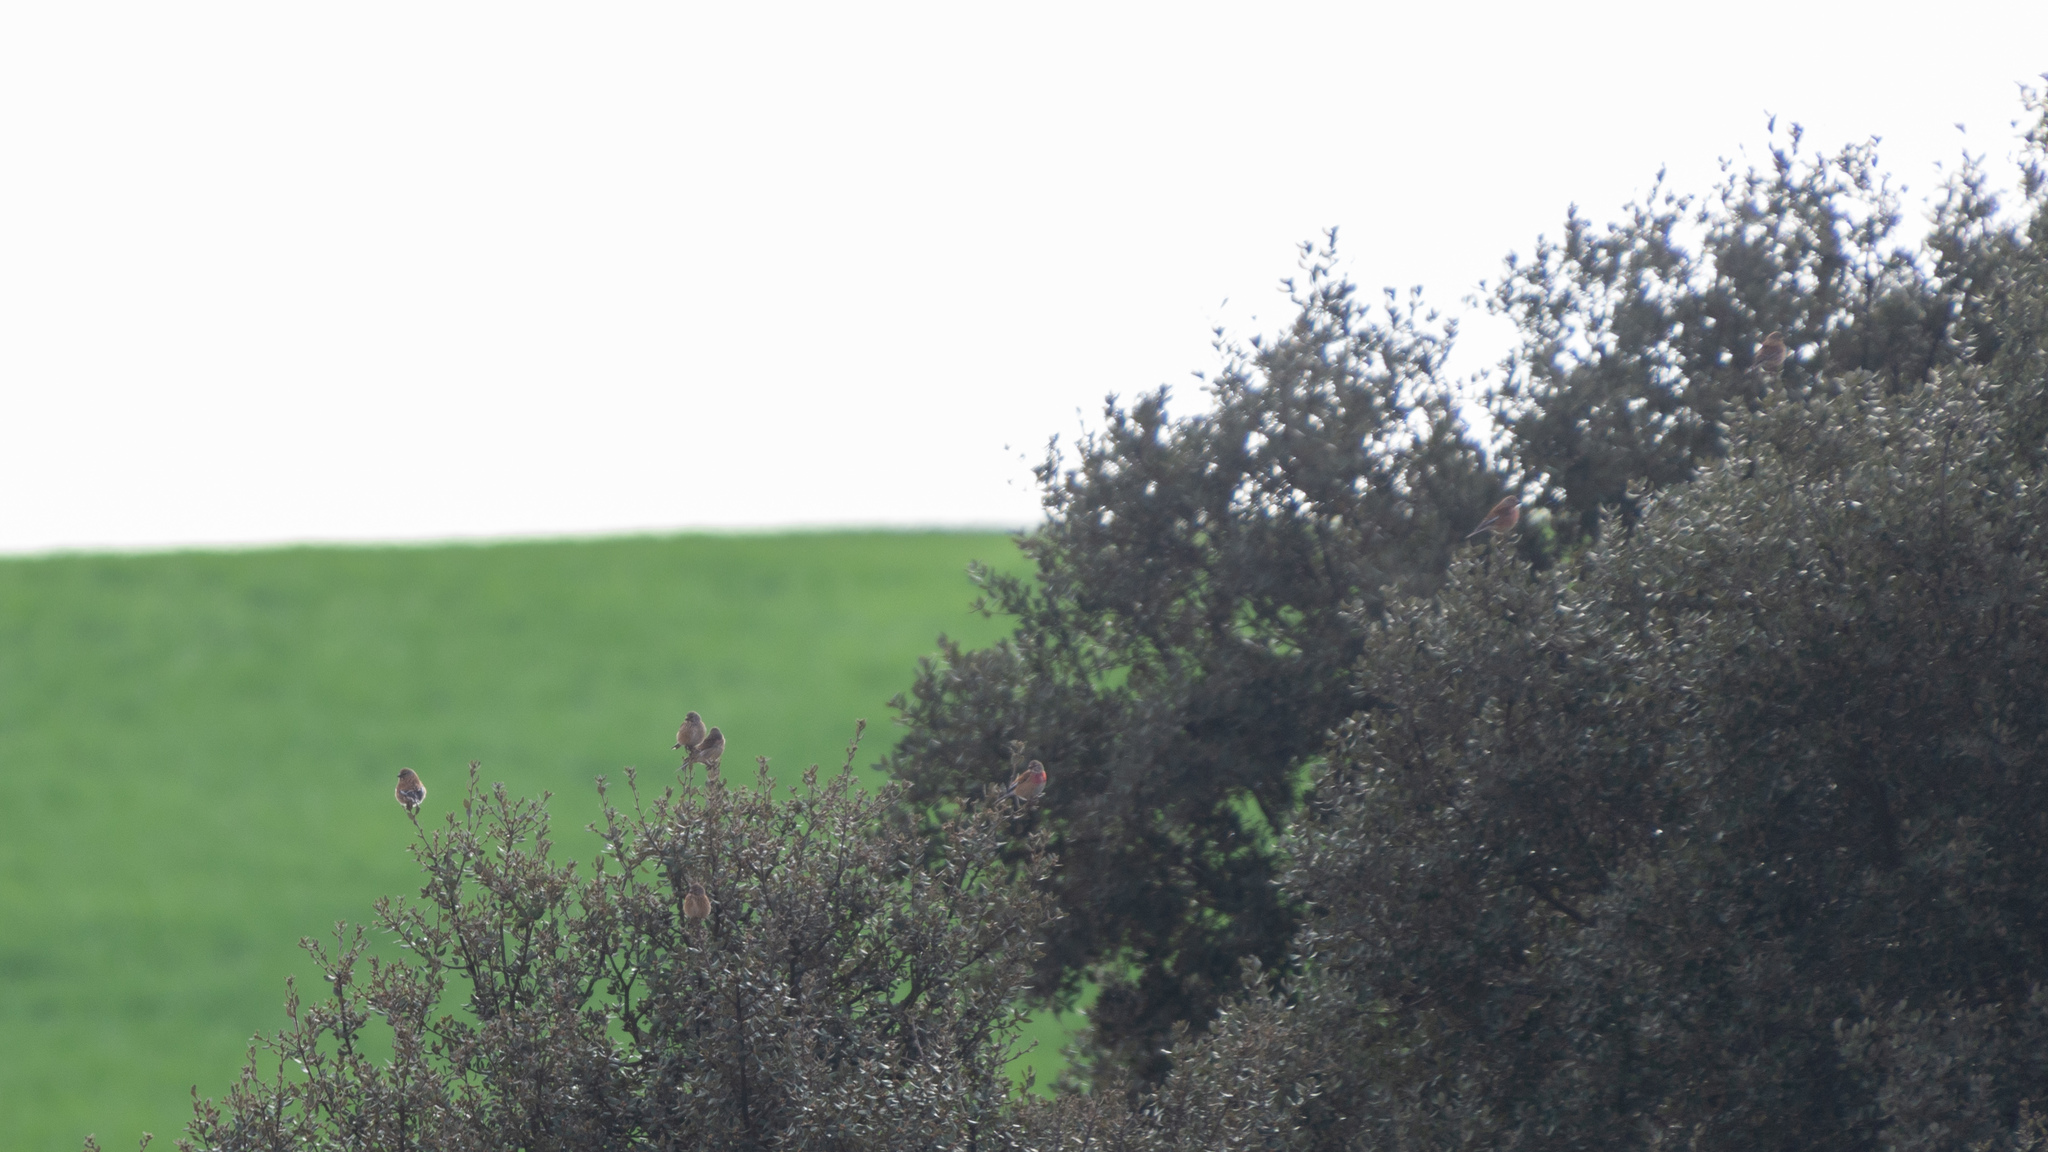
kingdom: Animalia
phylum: Chordata
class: Aves
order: Passeriformes
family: Fringillidae
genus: Linaria
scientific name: Linaria cannabina
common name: Common linnet
